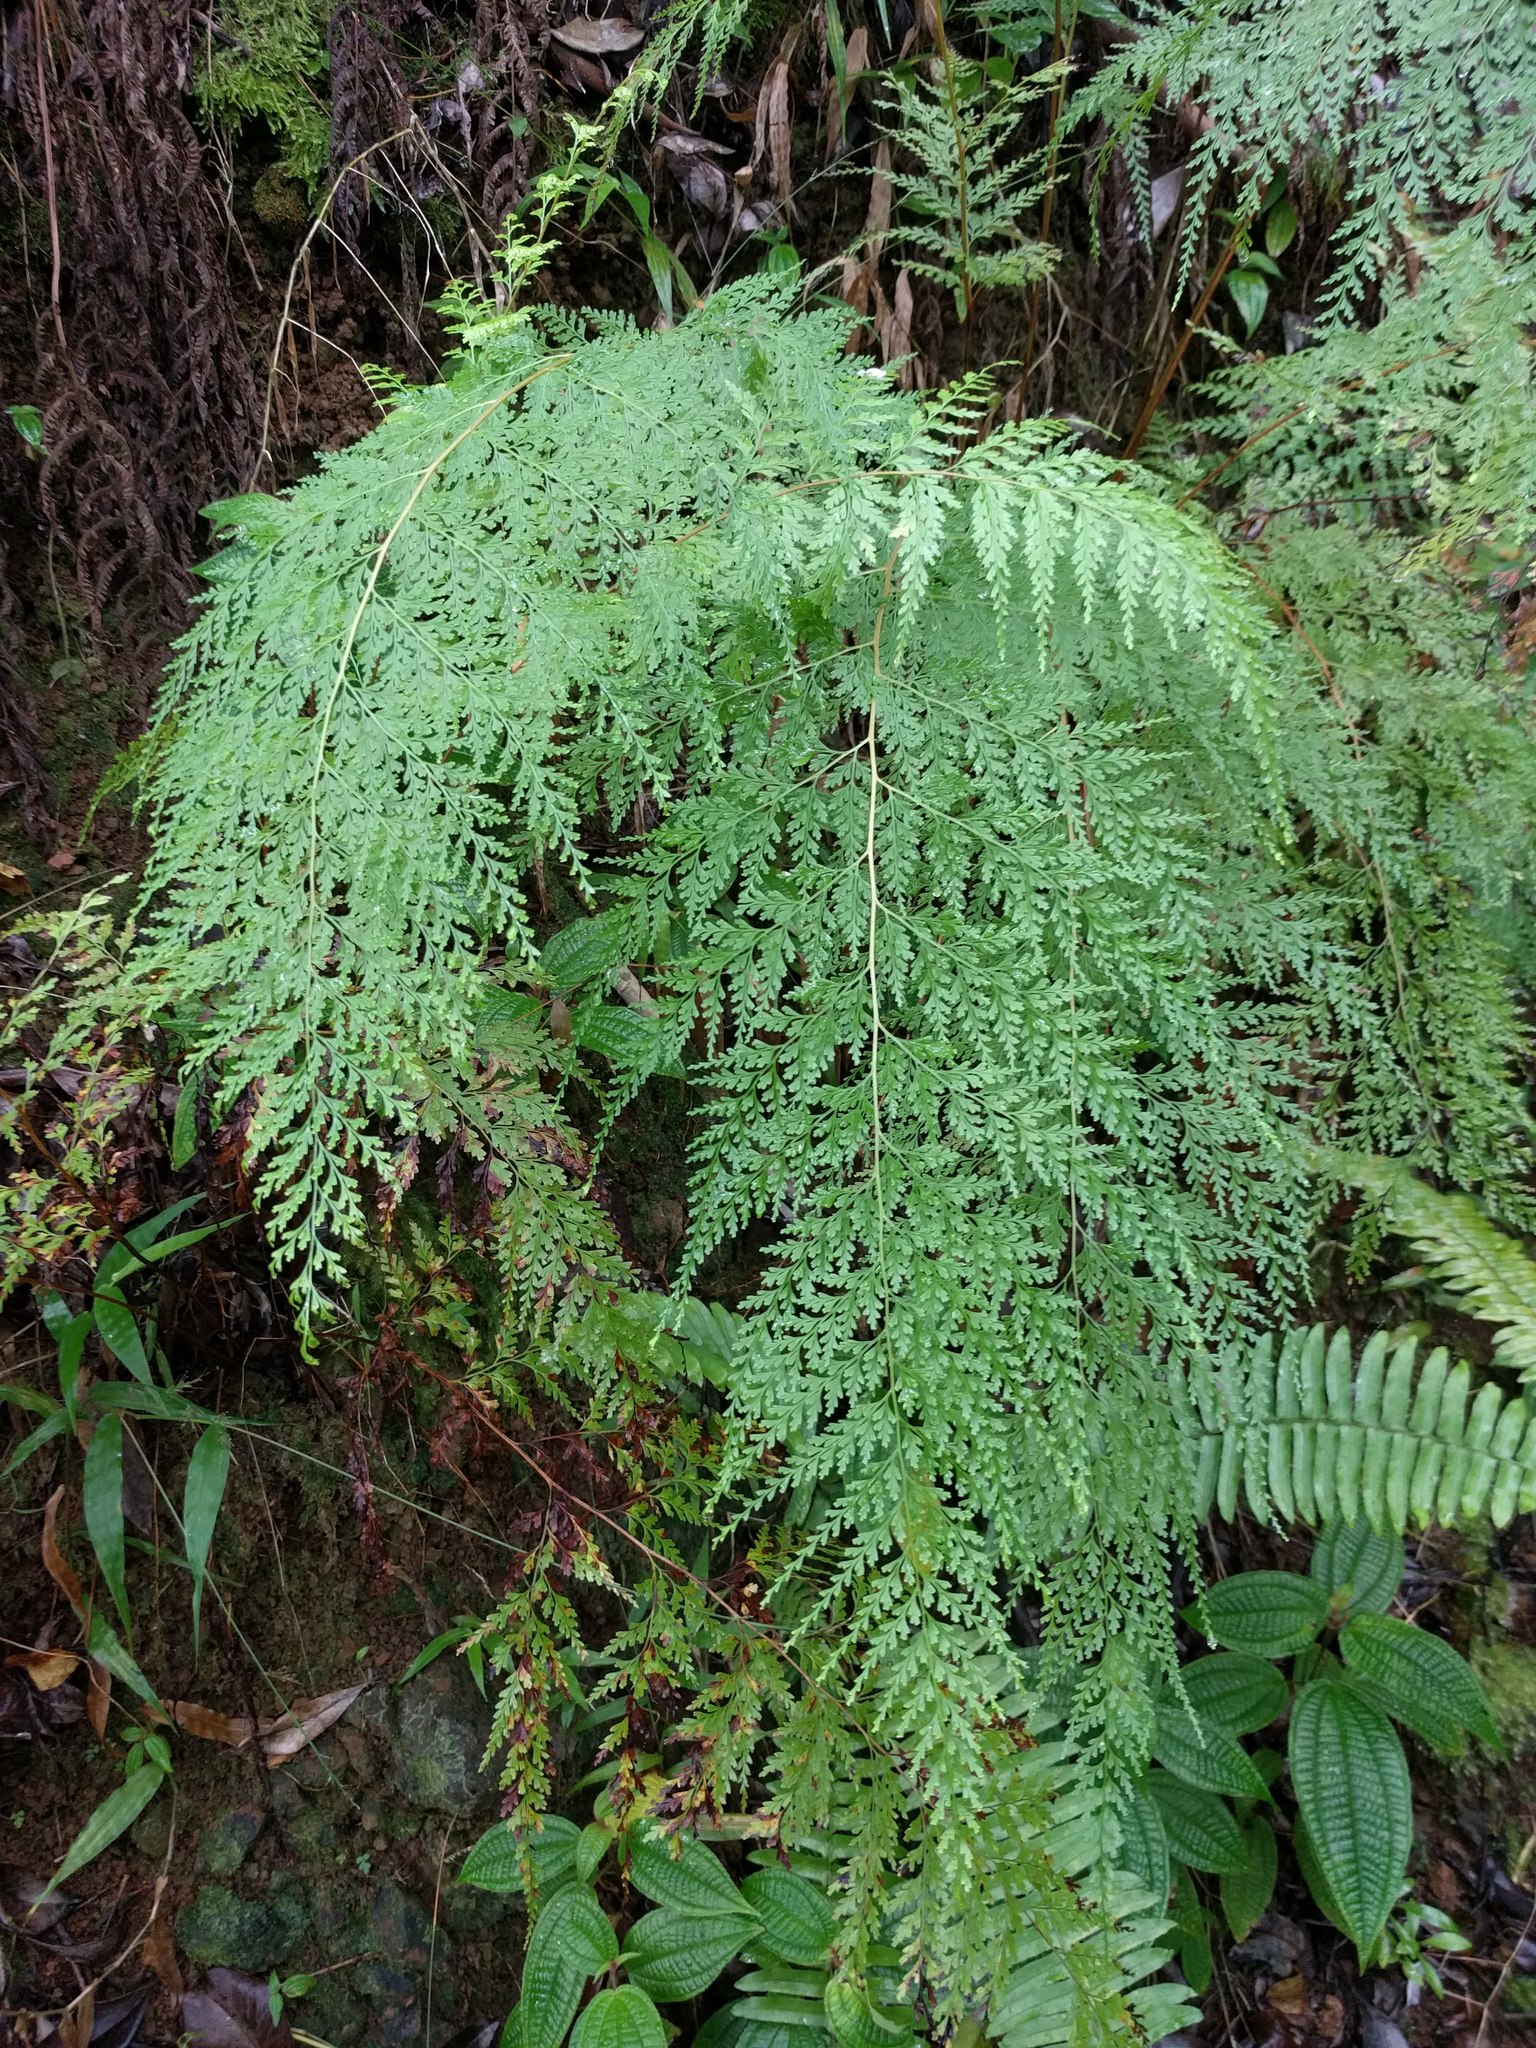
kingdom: Plantae
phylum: Tracheophyta
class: Polypodiopsida
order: Polypodiales
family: Lindsaeaceae
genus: Odontosoria
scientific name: Odontosoria chinensis
